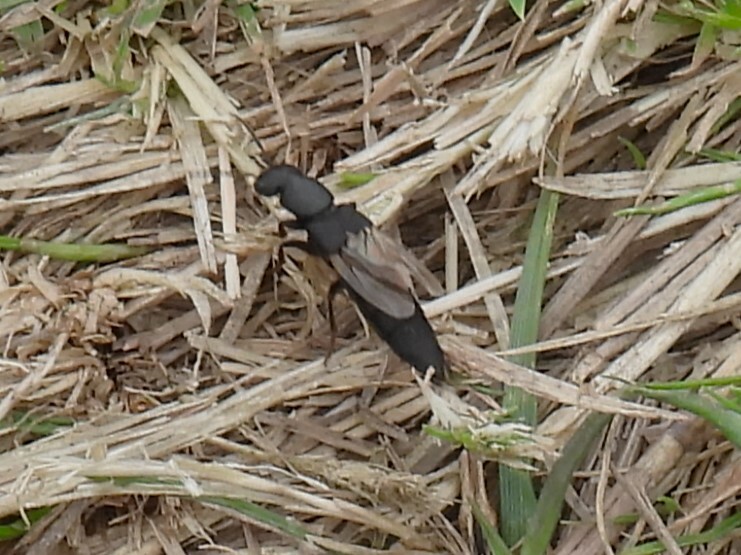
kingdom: Animalia
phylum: Arthropoda
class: Insecta
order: Coleoptera
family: Staphylinidae
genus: Ocypus
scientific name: Ocypus olens
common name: Devil's coach-horse
